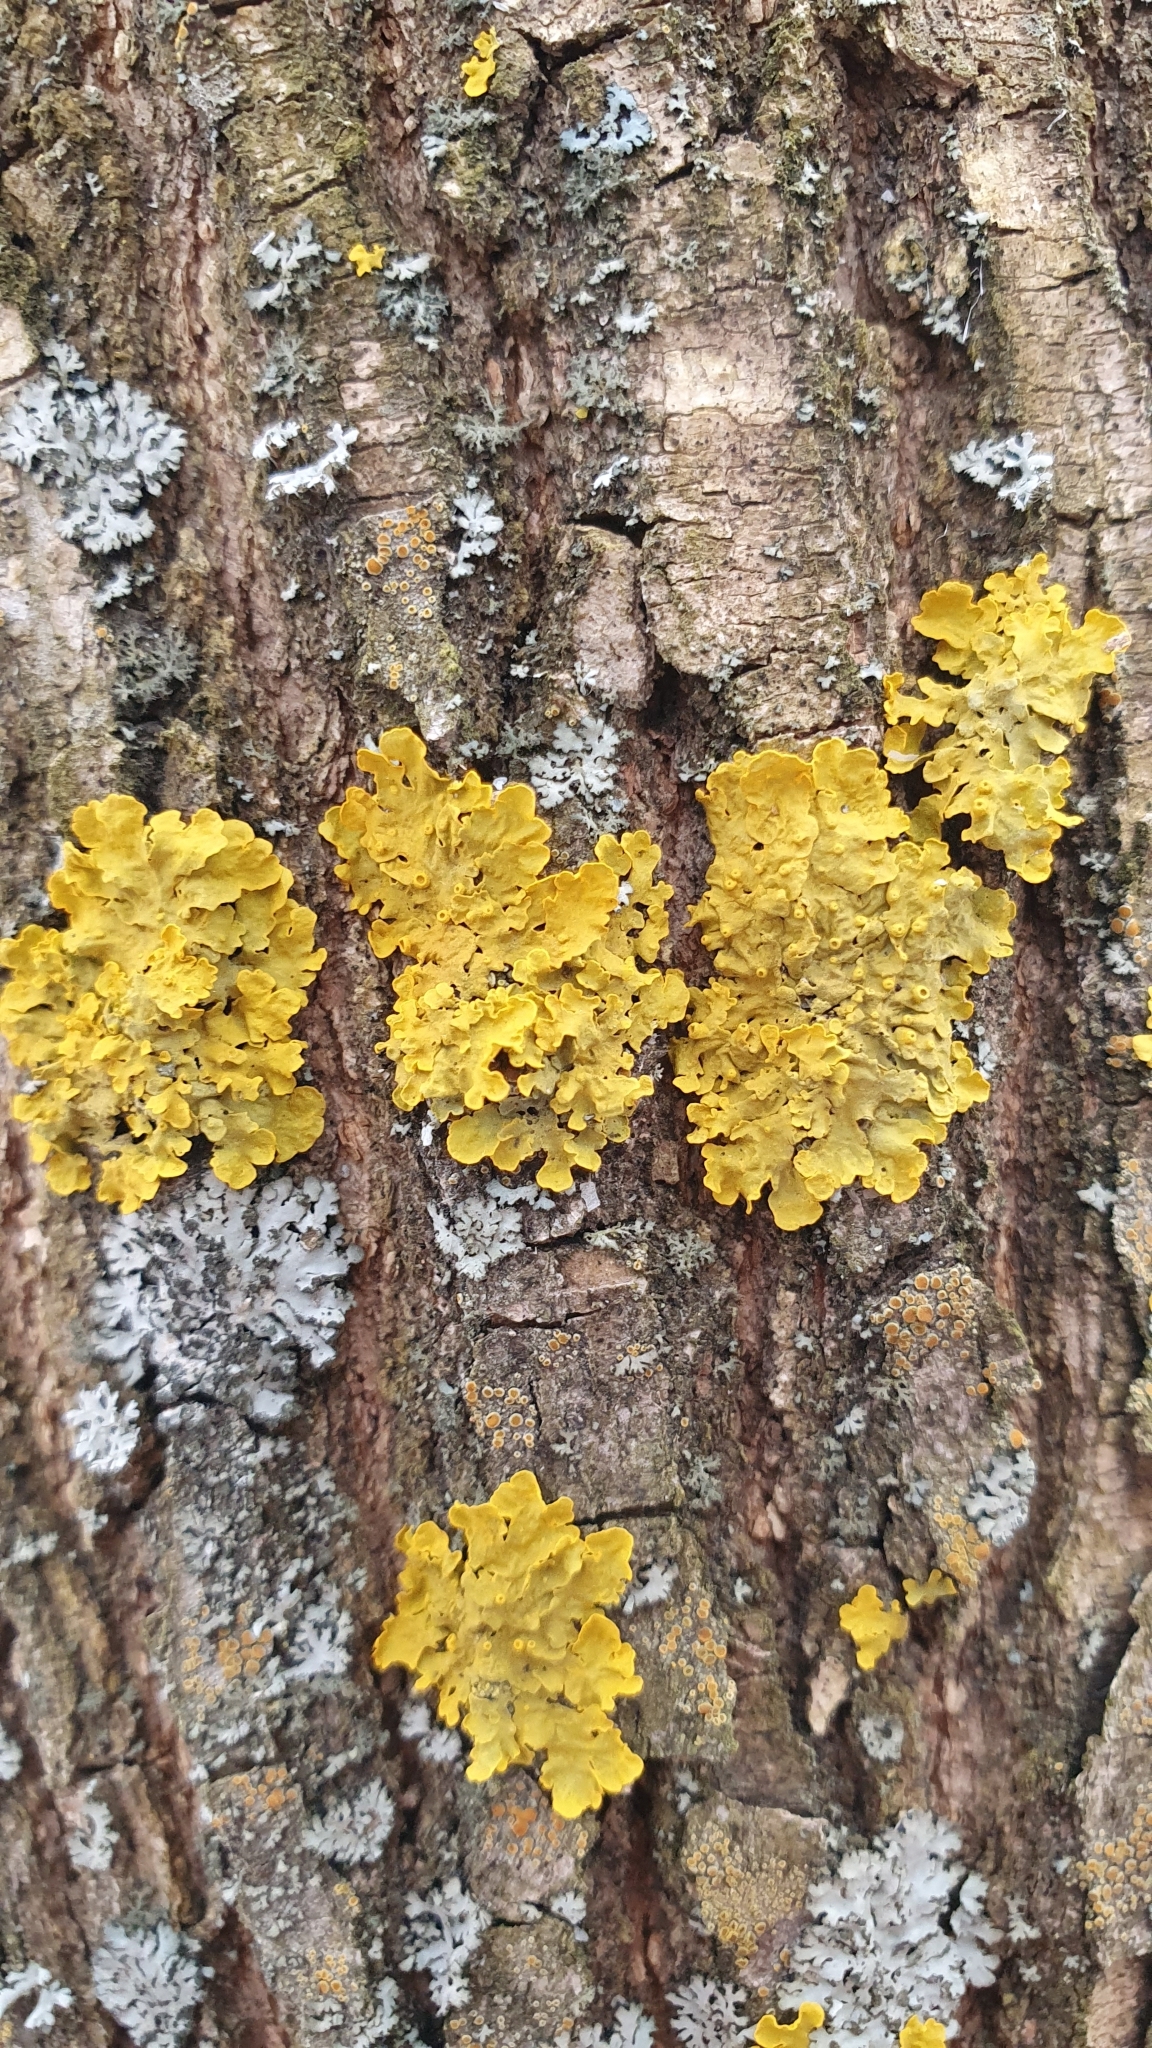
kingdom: Fungi
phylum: Ascomycota
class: Lecanoromycetes
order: Teloschistales
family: Teloschistaceae
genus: Xanthoria
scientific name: Xanthoria parietina
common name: Common orange lichen
